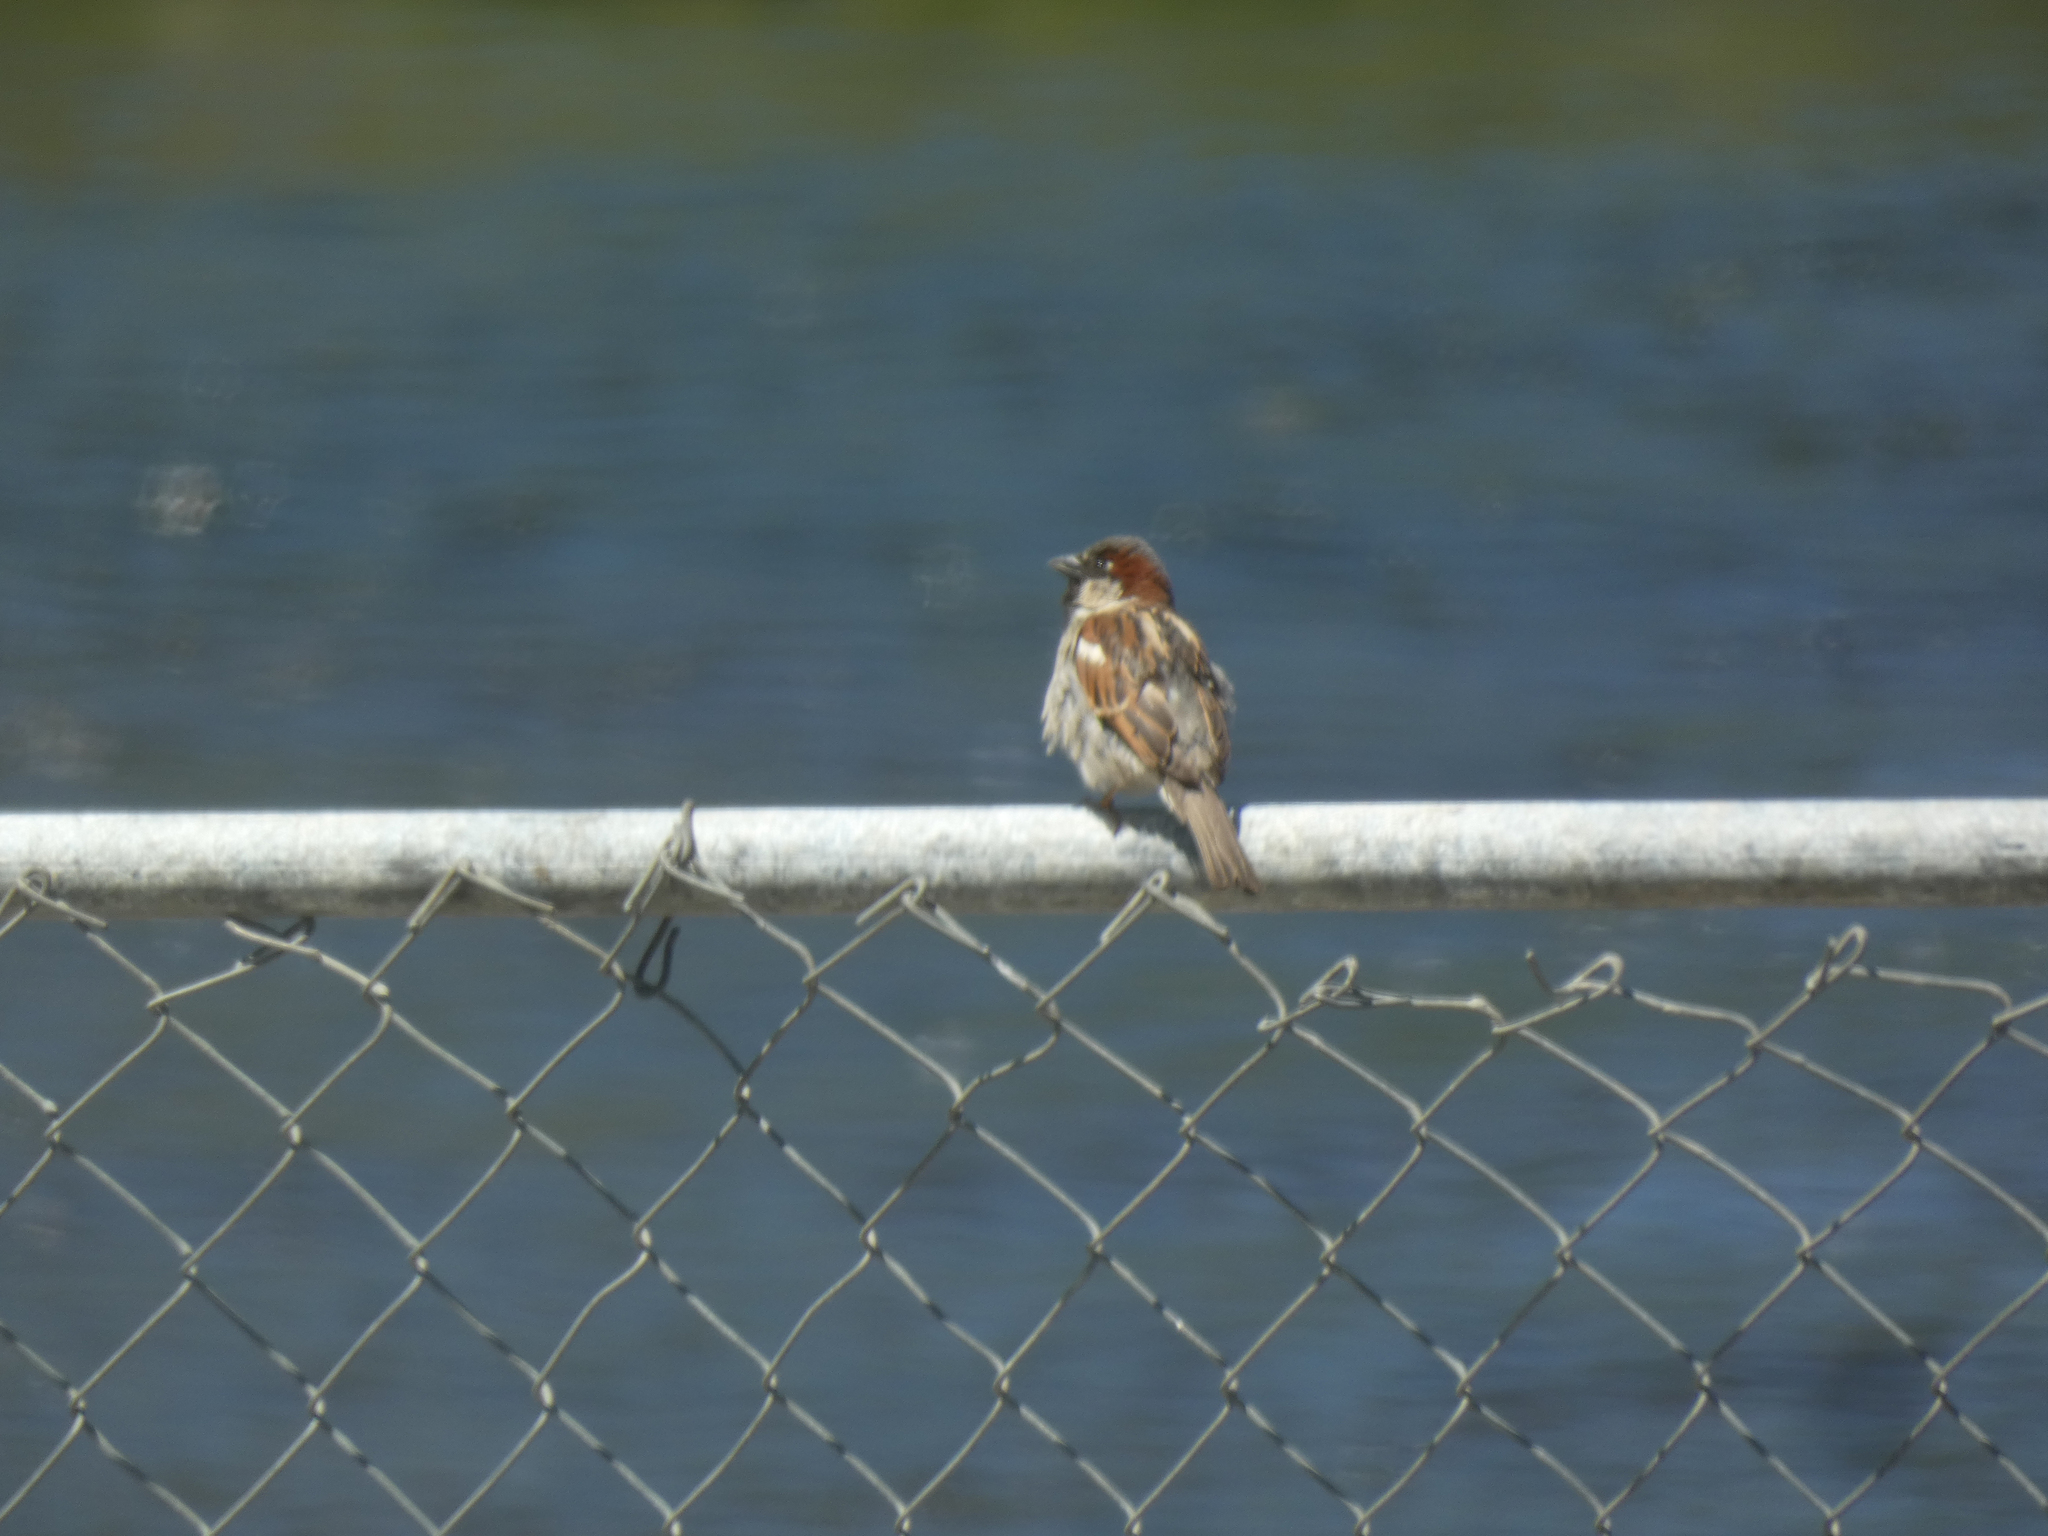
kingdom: Animalia
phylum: Chordata
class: Aves
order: Passeriformes
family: Passeridae
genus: Passer
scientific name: Passer domesticus
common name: House sparrow
